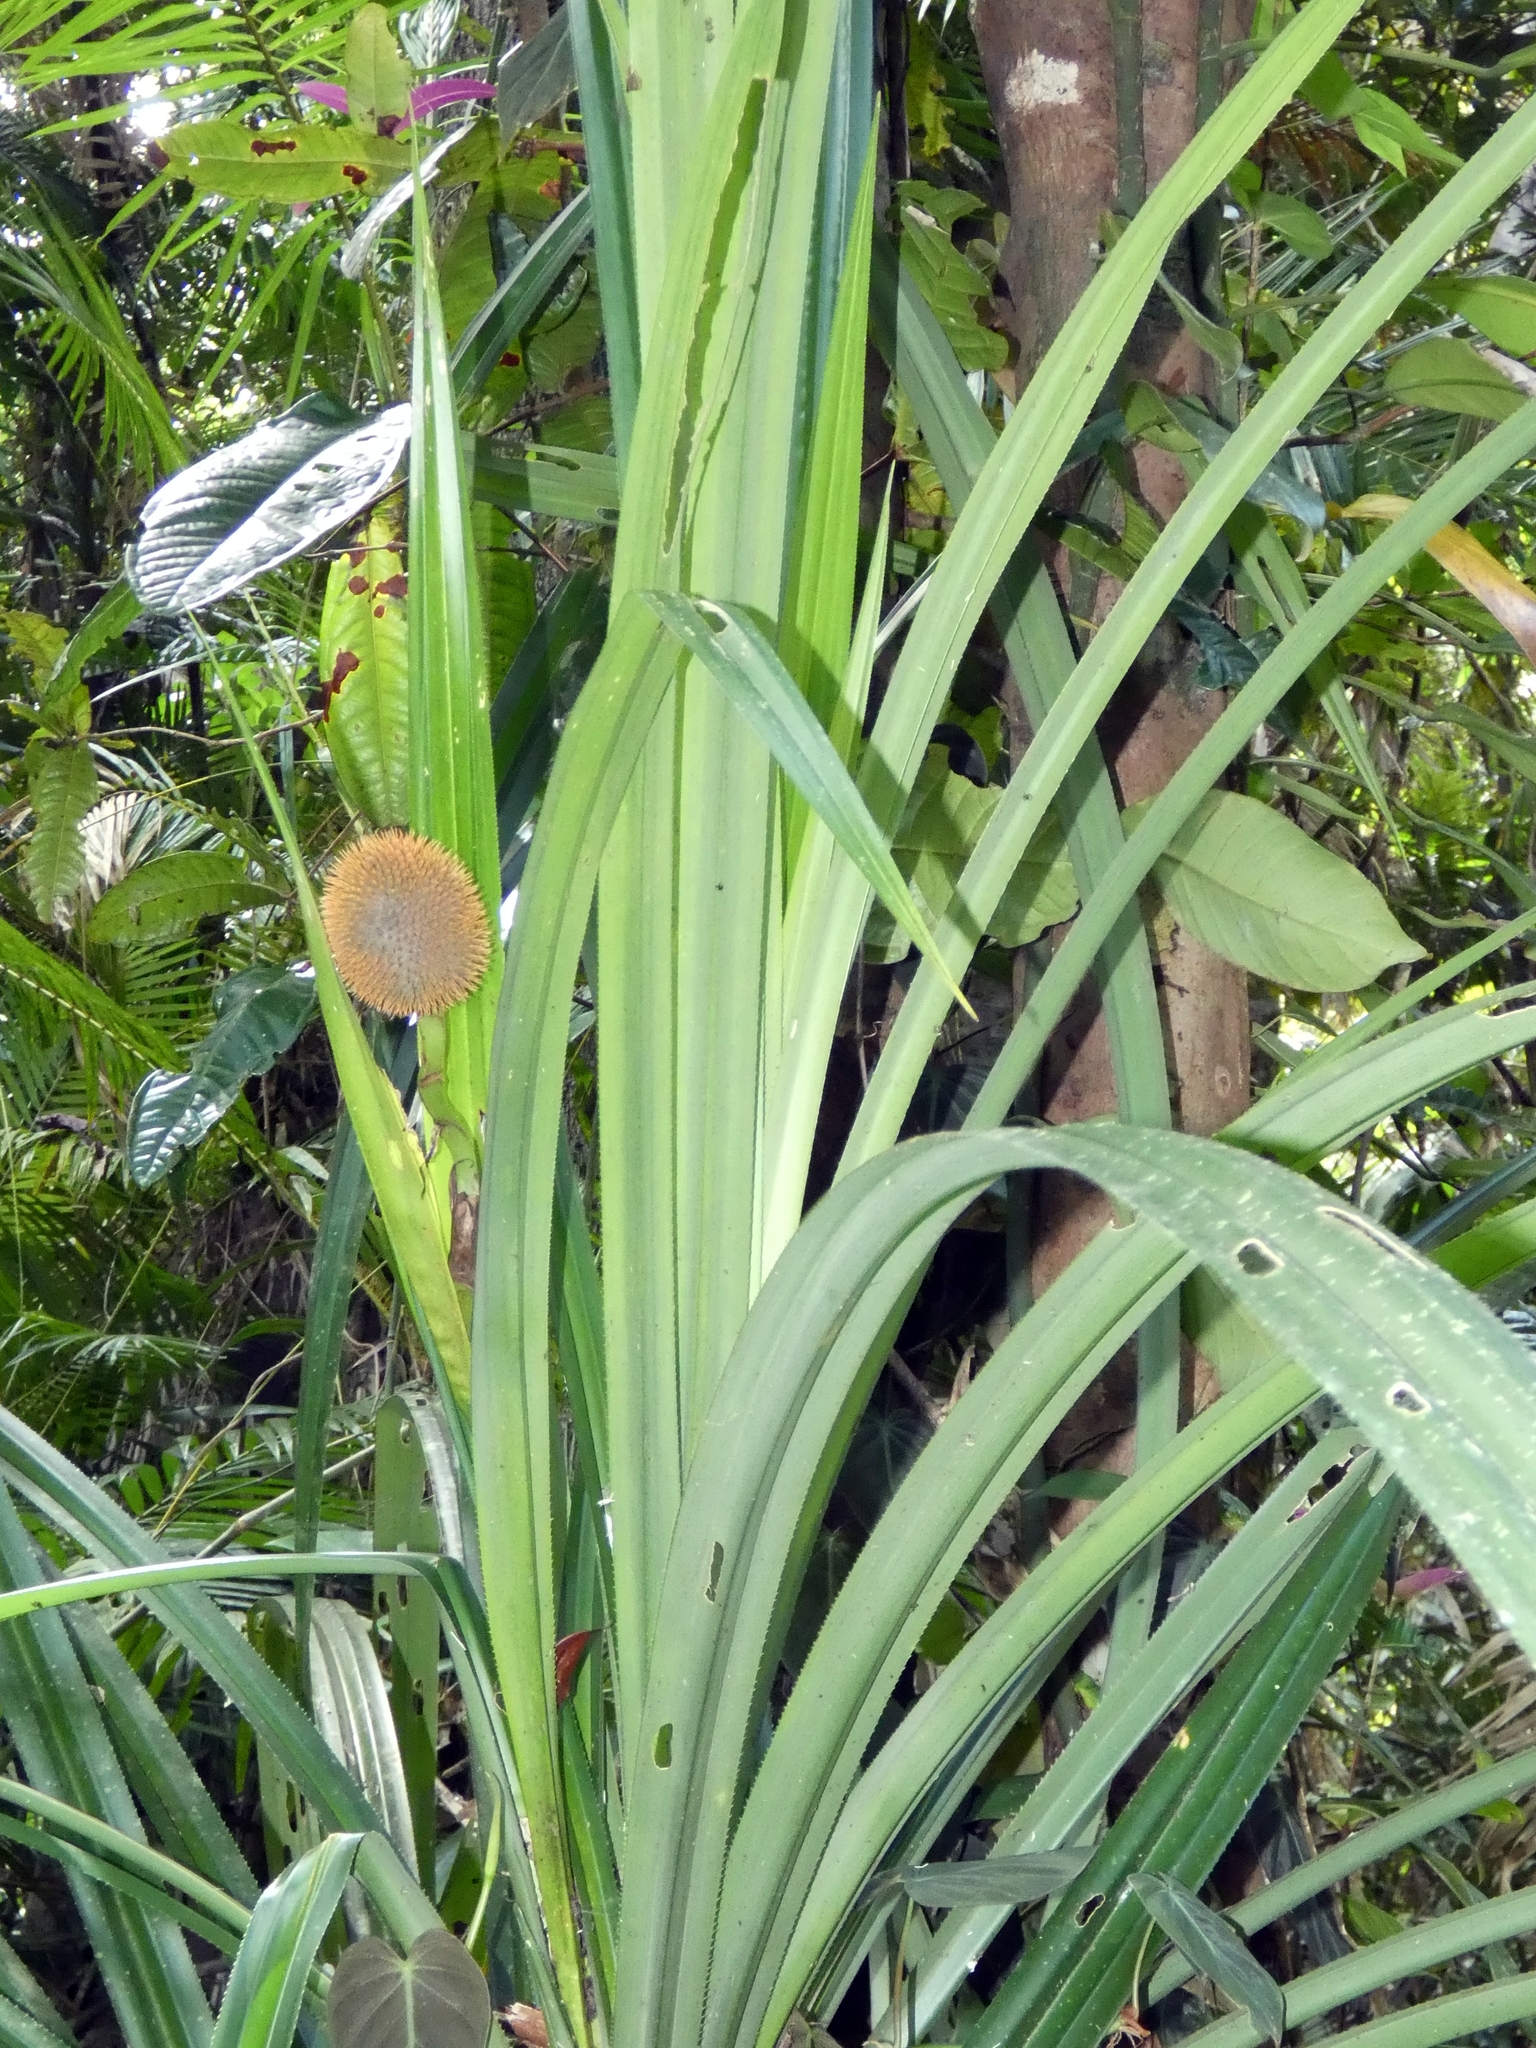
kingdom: Plantae
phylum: Tracheophyta
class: Liliopsida
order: Pandanales
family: Pandanaceae
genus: Benstonea
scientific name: Benstonea monticola
